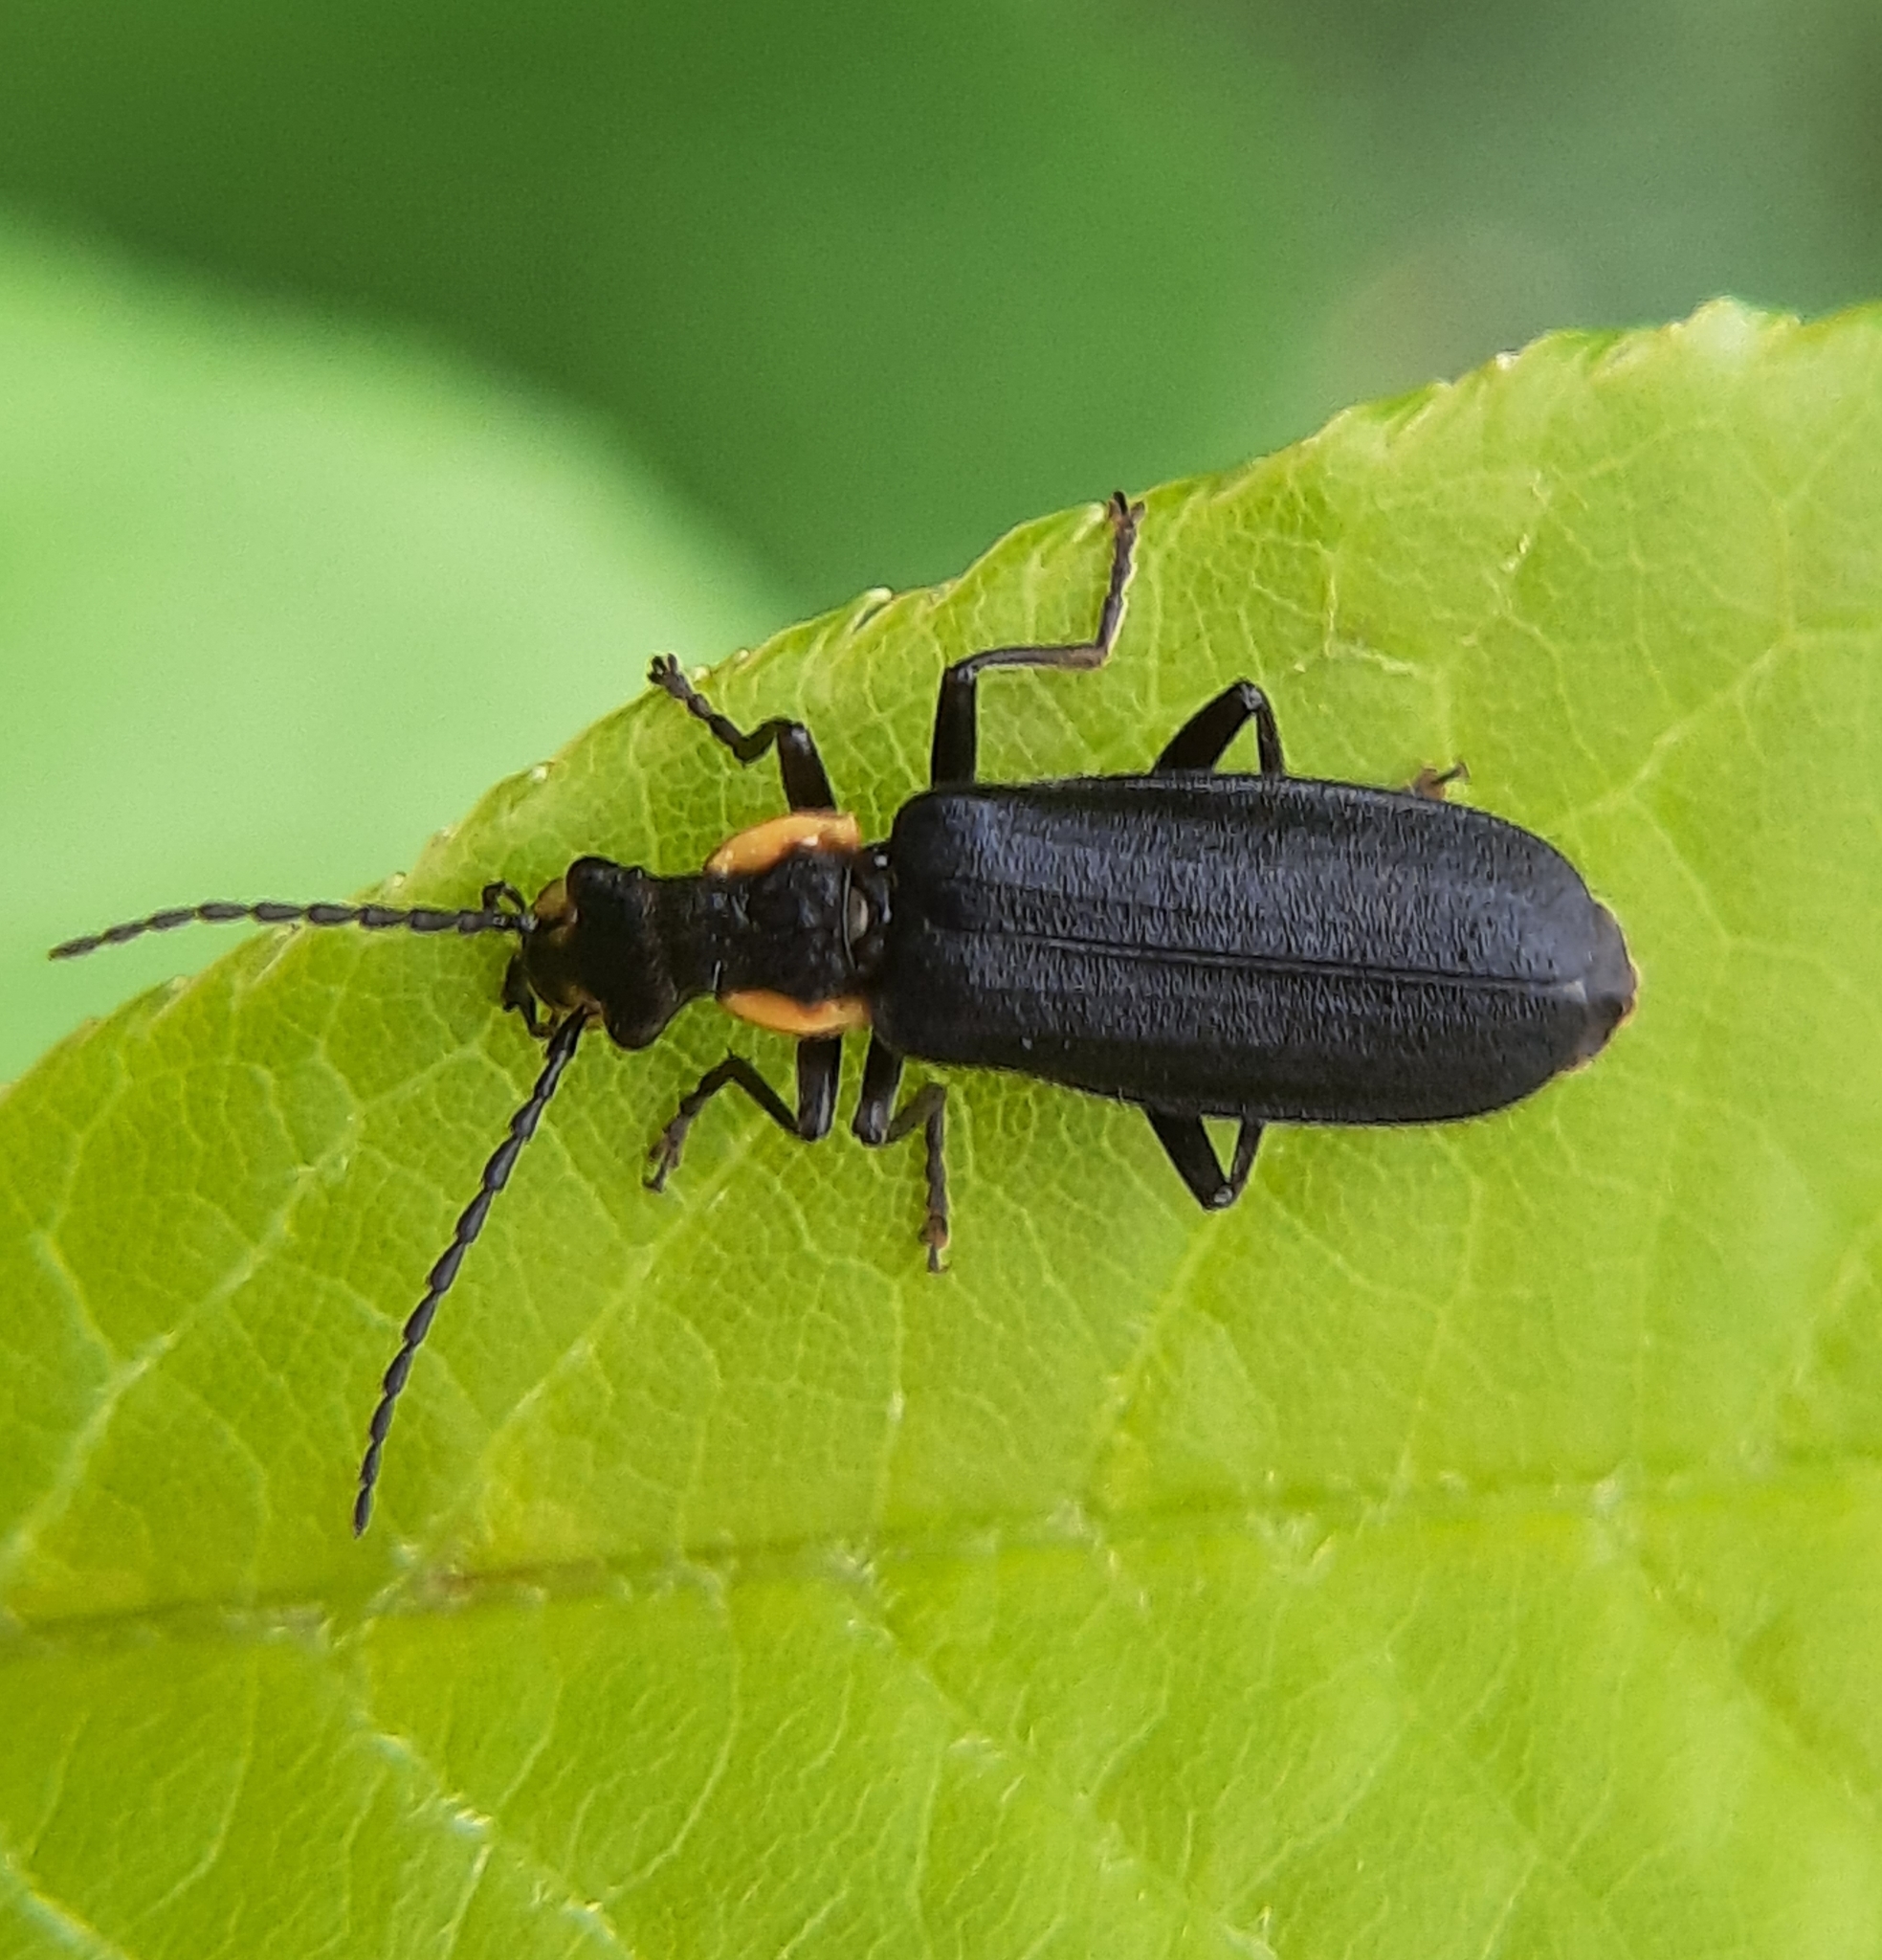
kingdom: Animalia
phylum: Arthropoda
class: Insecta
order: Coleoptera
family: Cantharidae
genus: Podabrus
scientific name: Podabrus rugosulus
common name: Wrinkled soldier beetle
